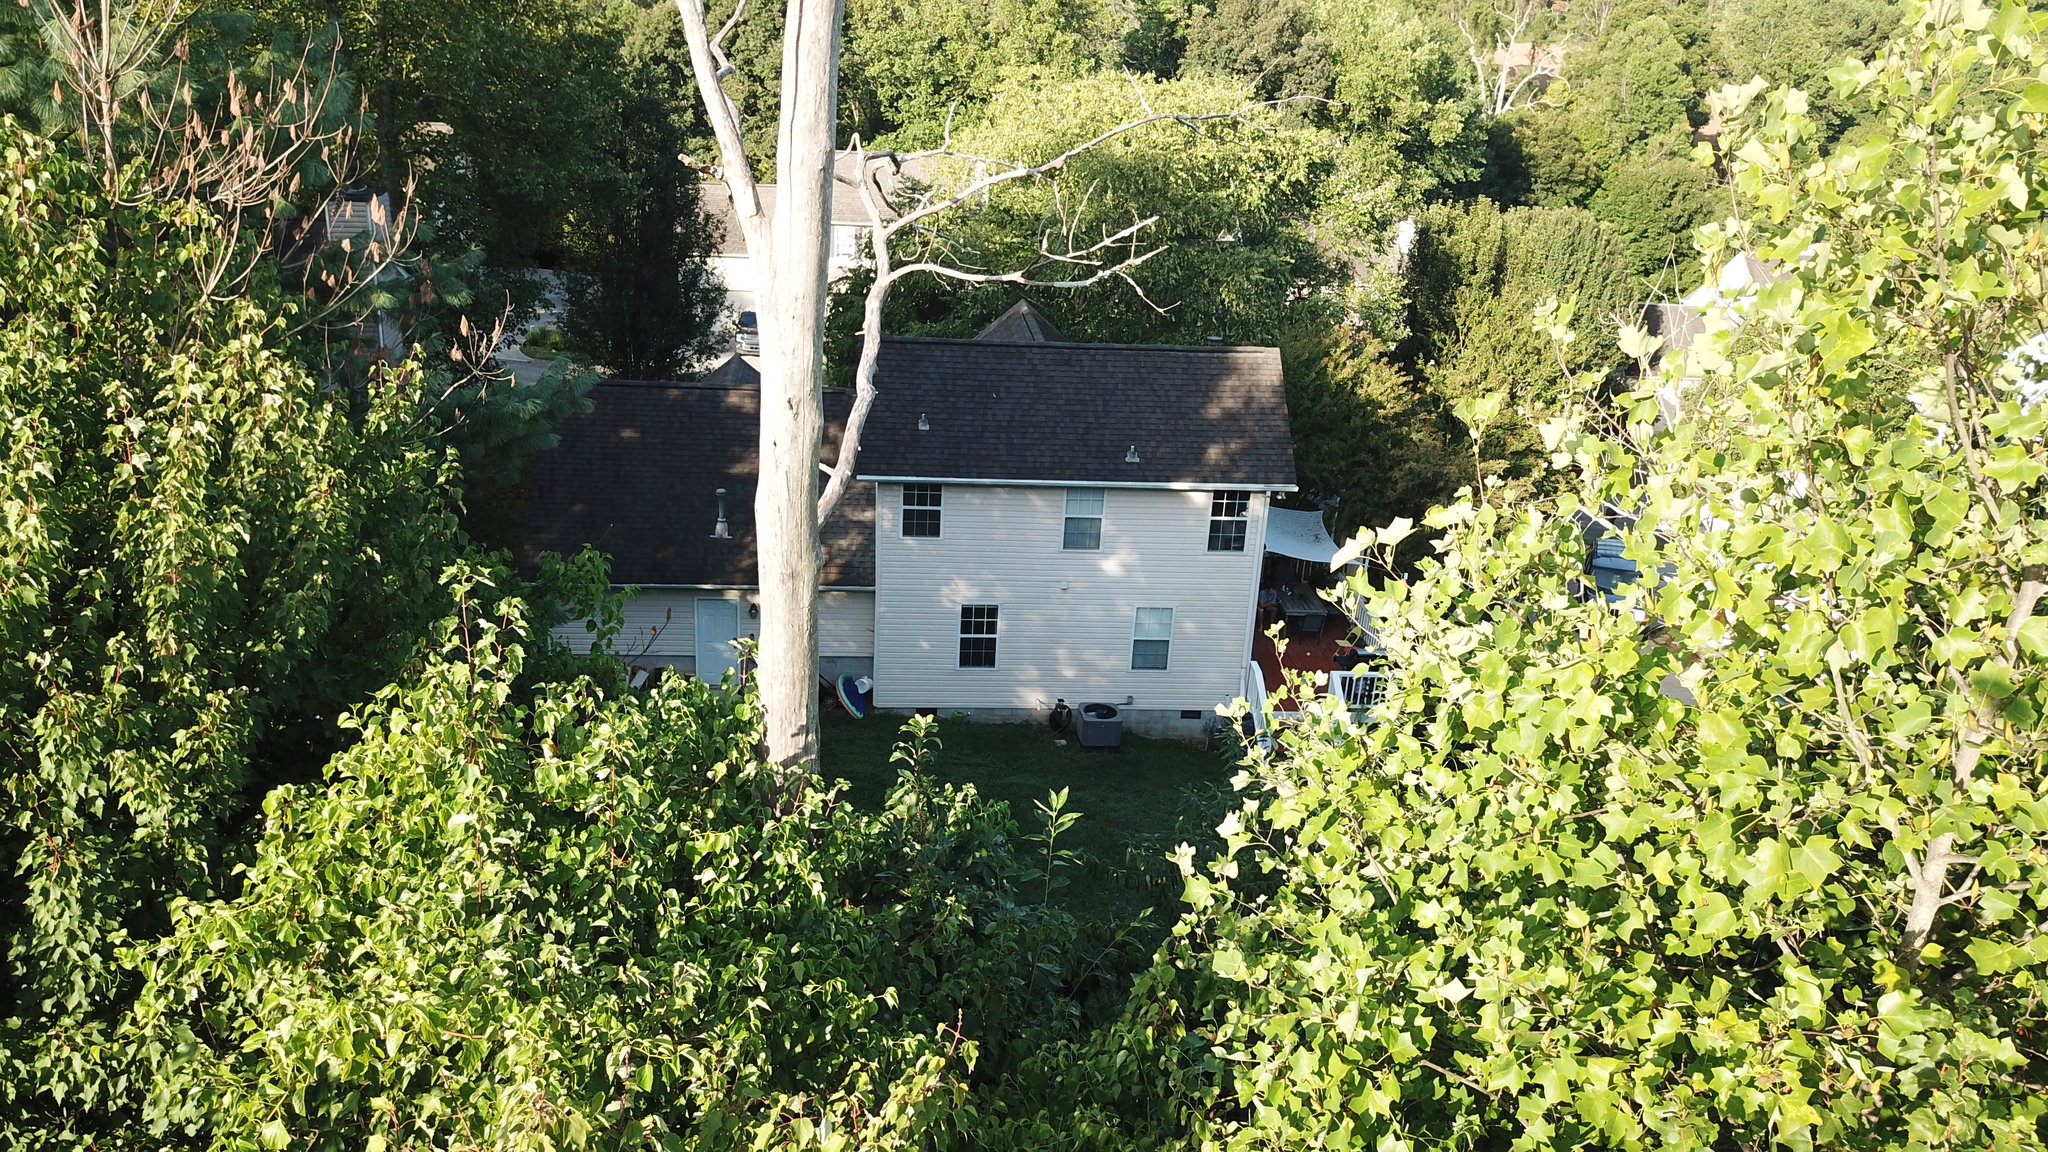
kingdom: Plantae
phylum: Tracheophyta
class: Magnoliopsida
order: Magnoliales
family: Magnoliaceae
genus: Liriodendron
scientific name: Liriodendron tulipifera
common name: Tulip tree
